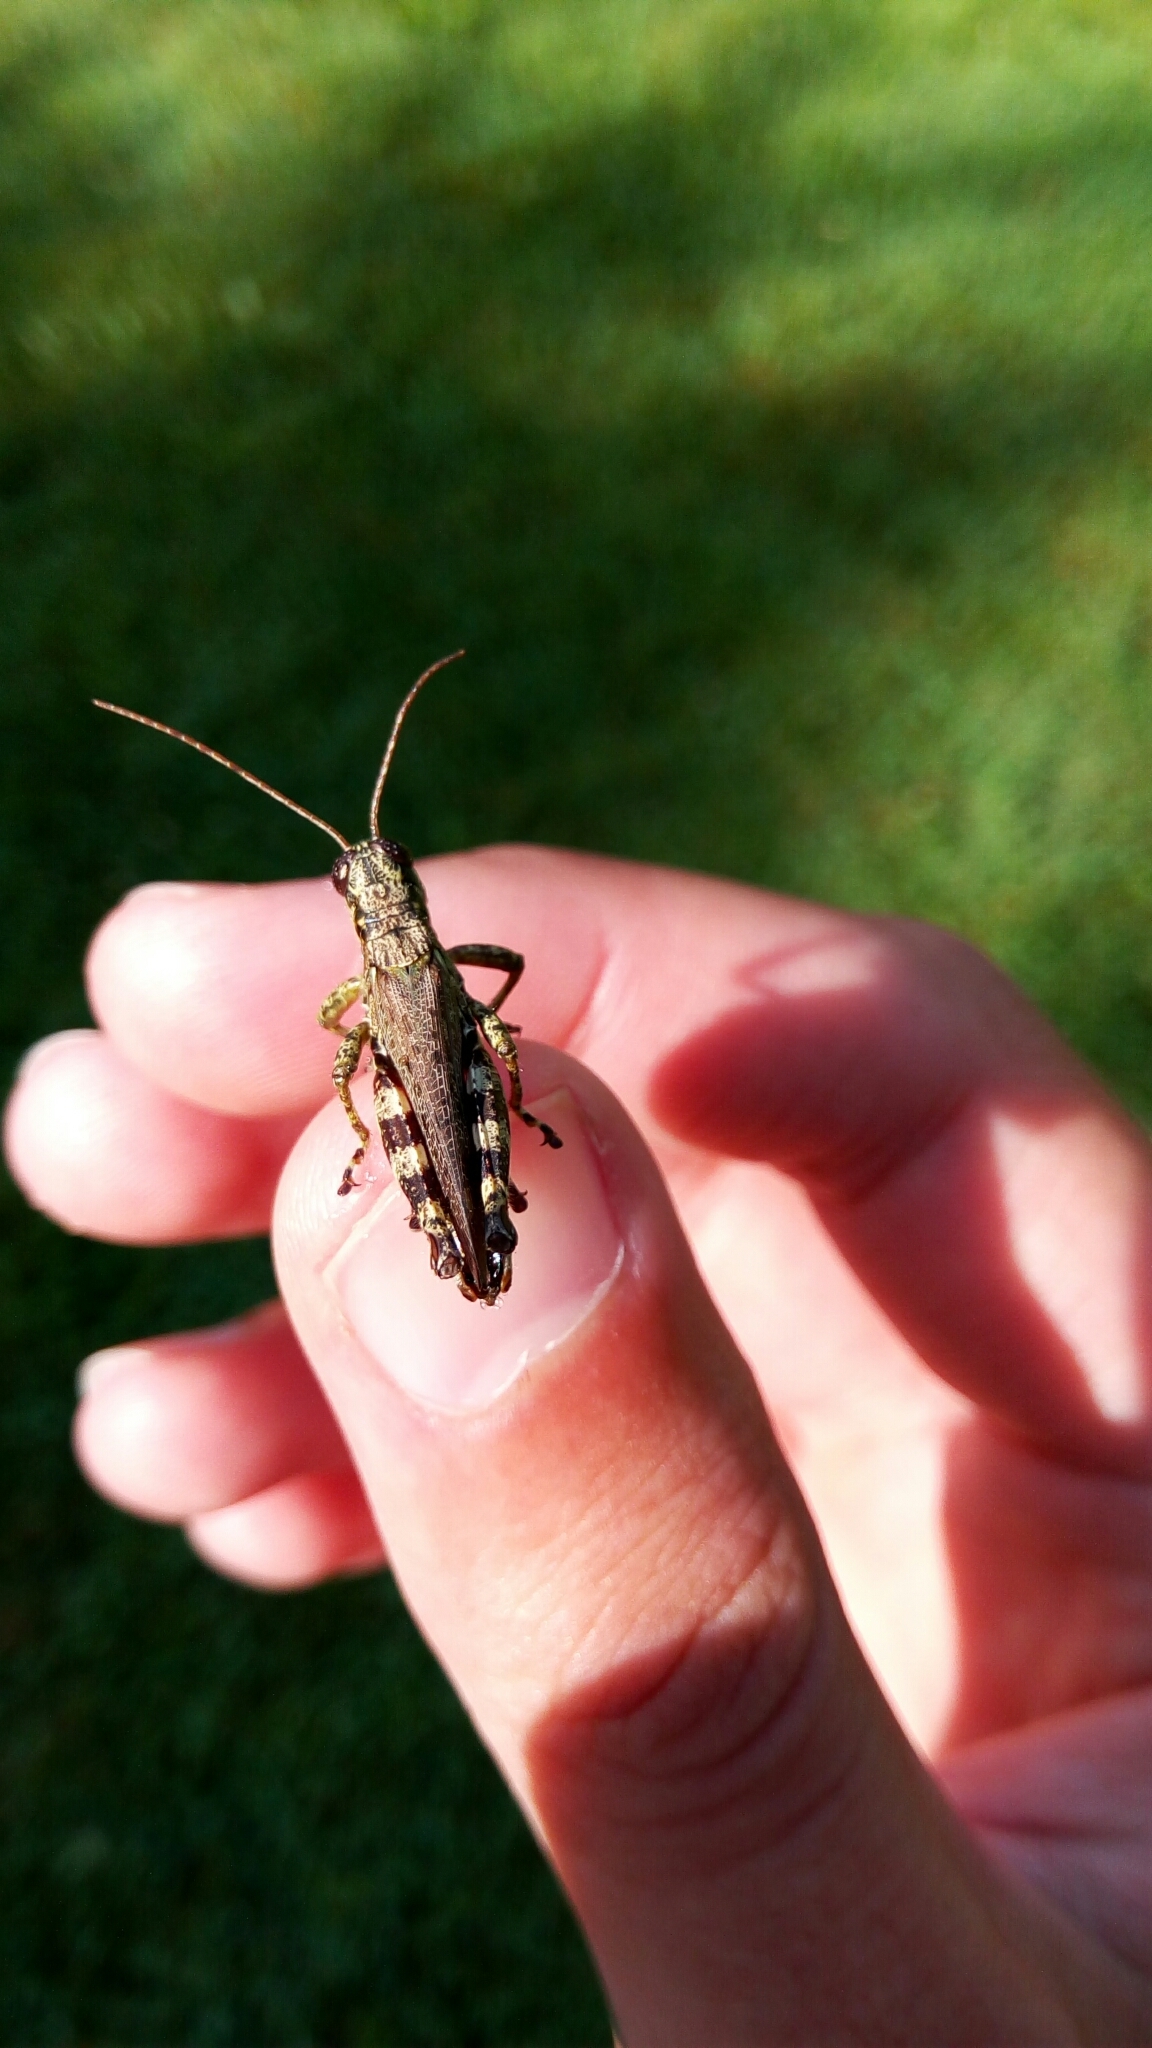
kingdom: Animalia
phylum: Arthropoda
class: Insecta
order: Orthoptera
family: Acrididae
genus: Melanoplus
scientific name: Melanoplus punctulatus
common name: Pine-tree spur-throat grasshopper
